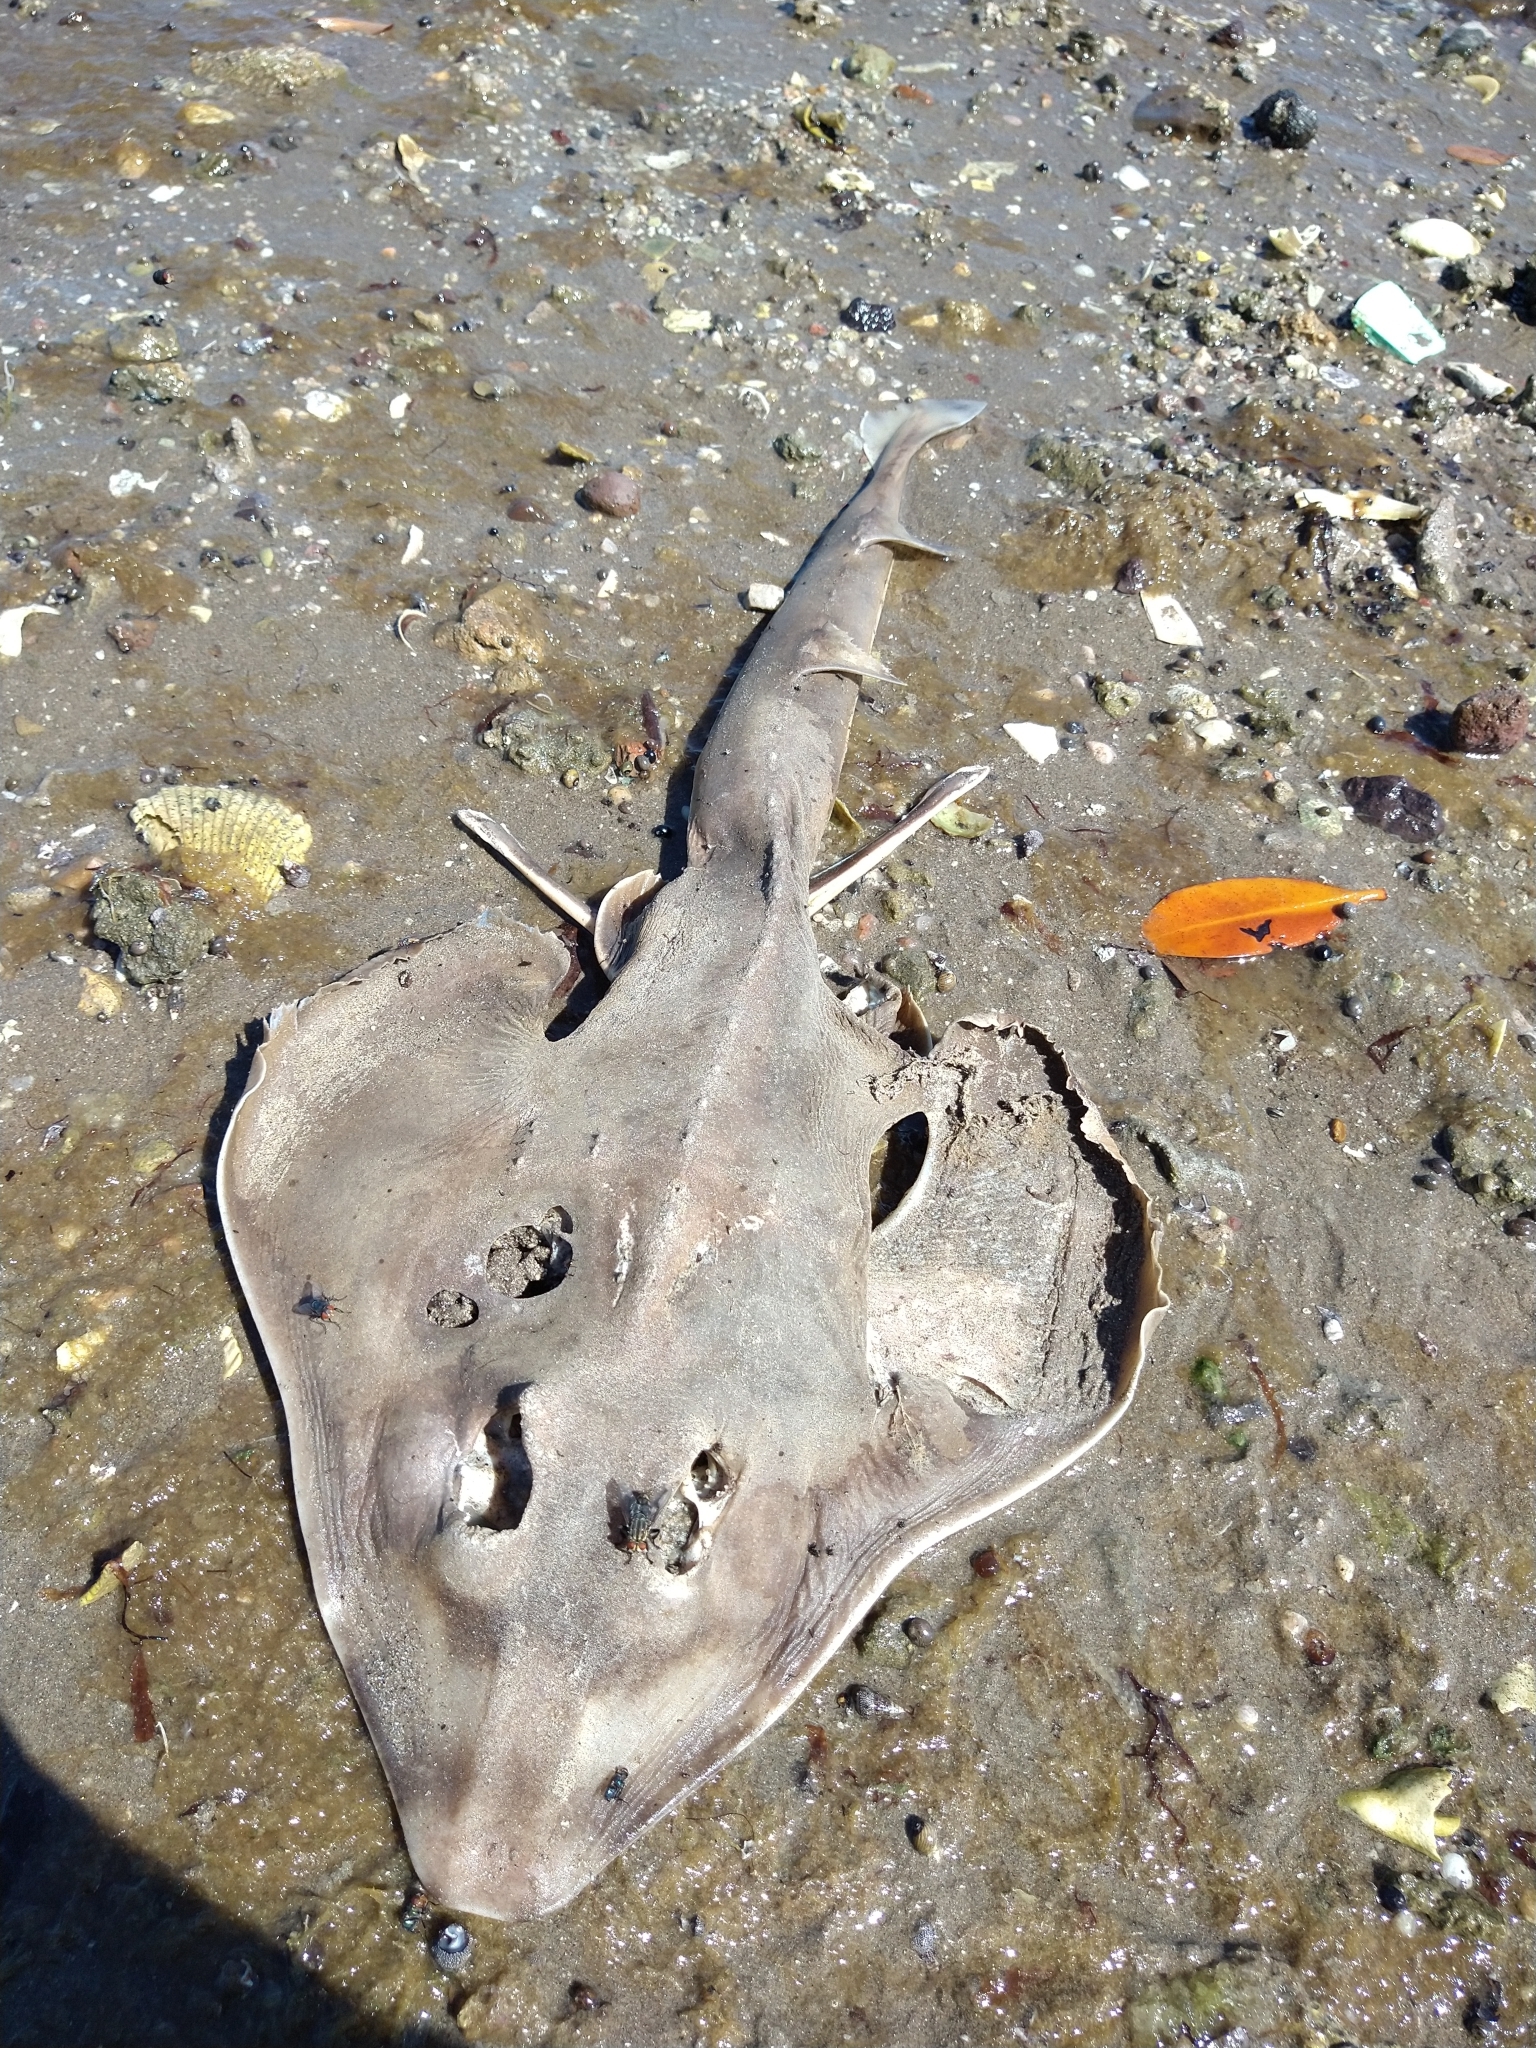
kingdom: Animalia
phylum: Chordata
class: Elasmobranchii
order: Rhinopristiformes
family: Rhinobatidae
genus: Zapteryx
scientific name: Zapteryx exasperata
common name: Banded guitarfish
